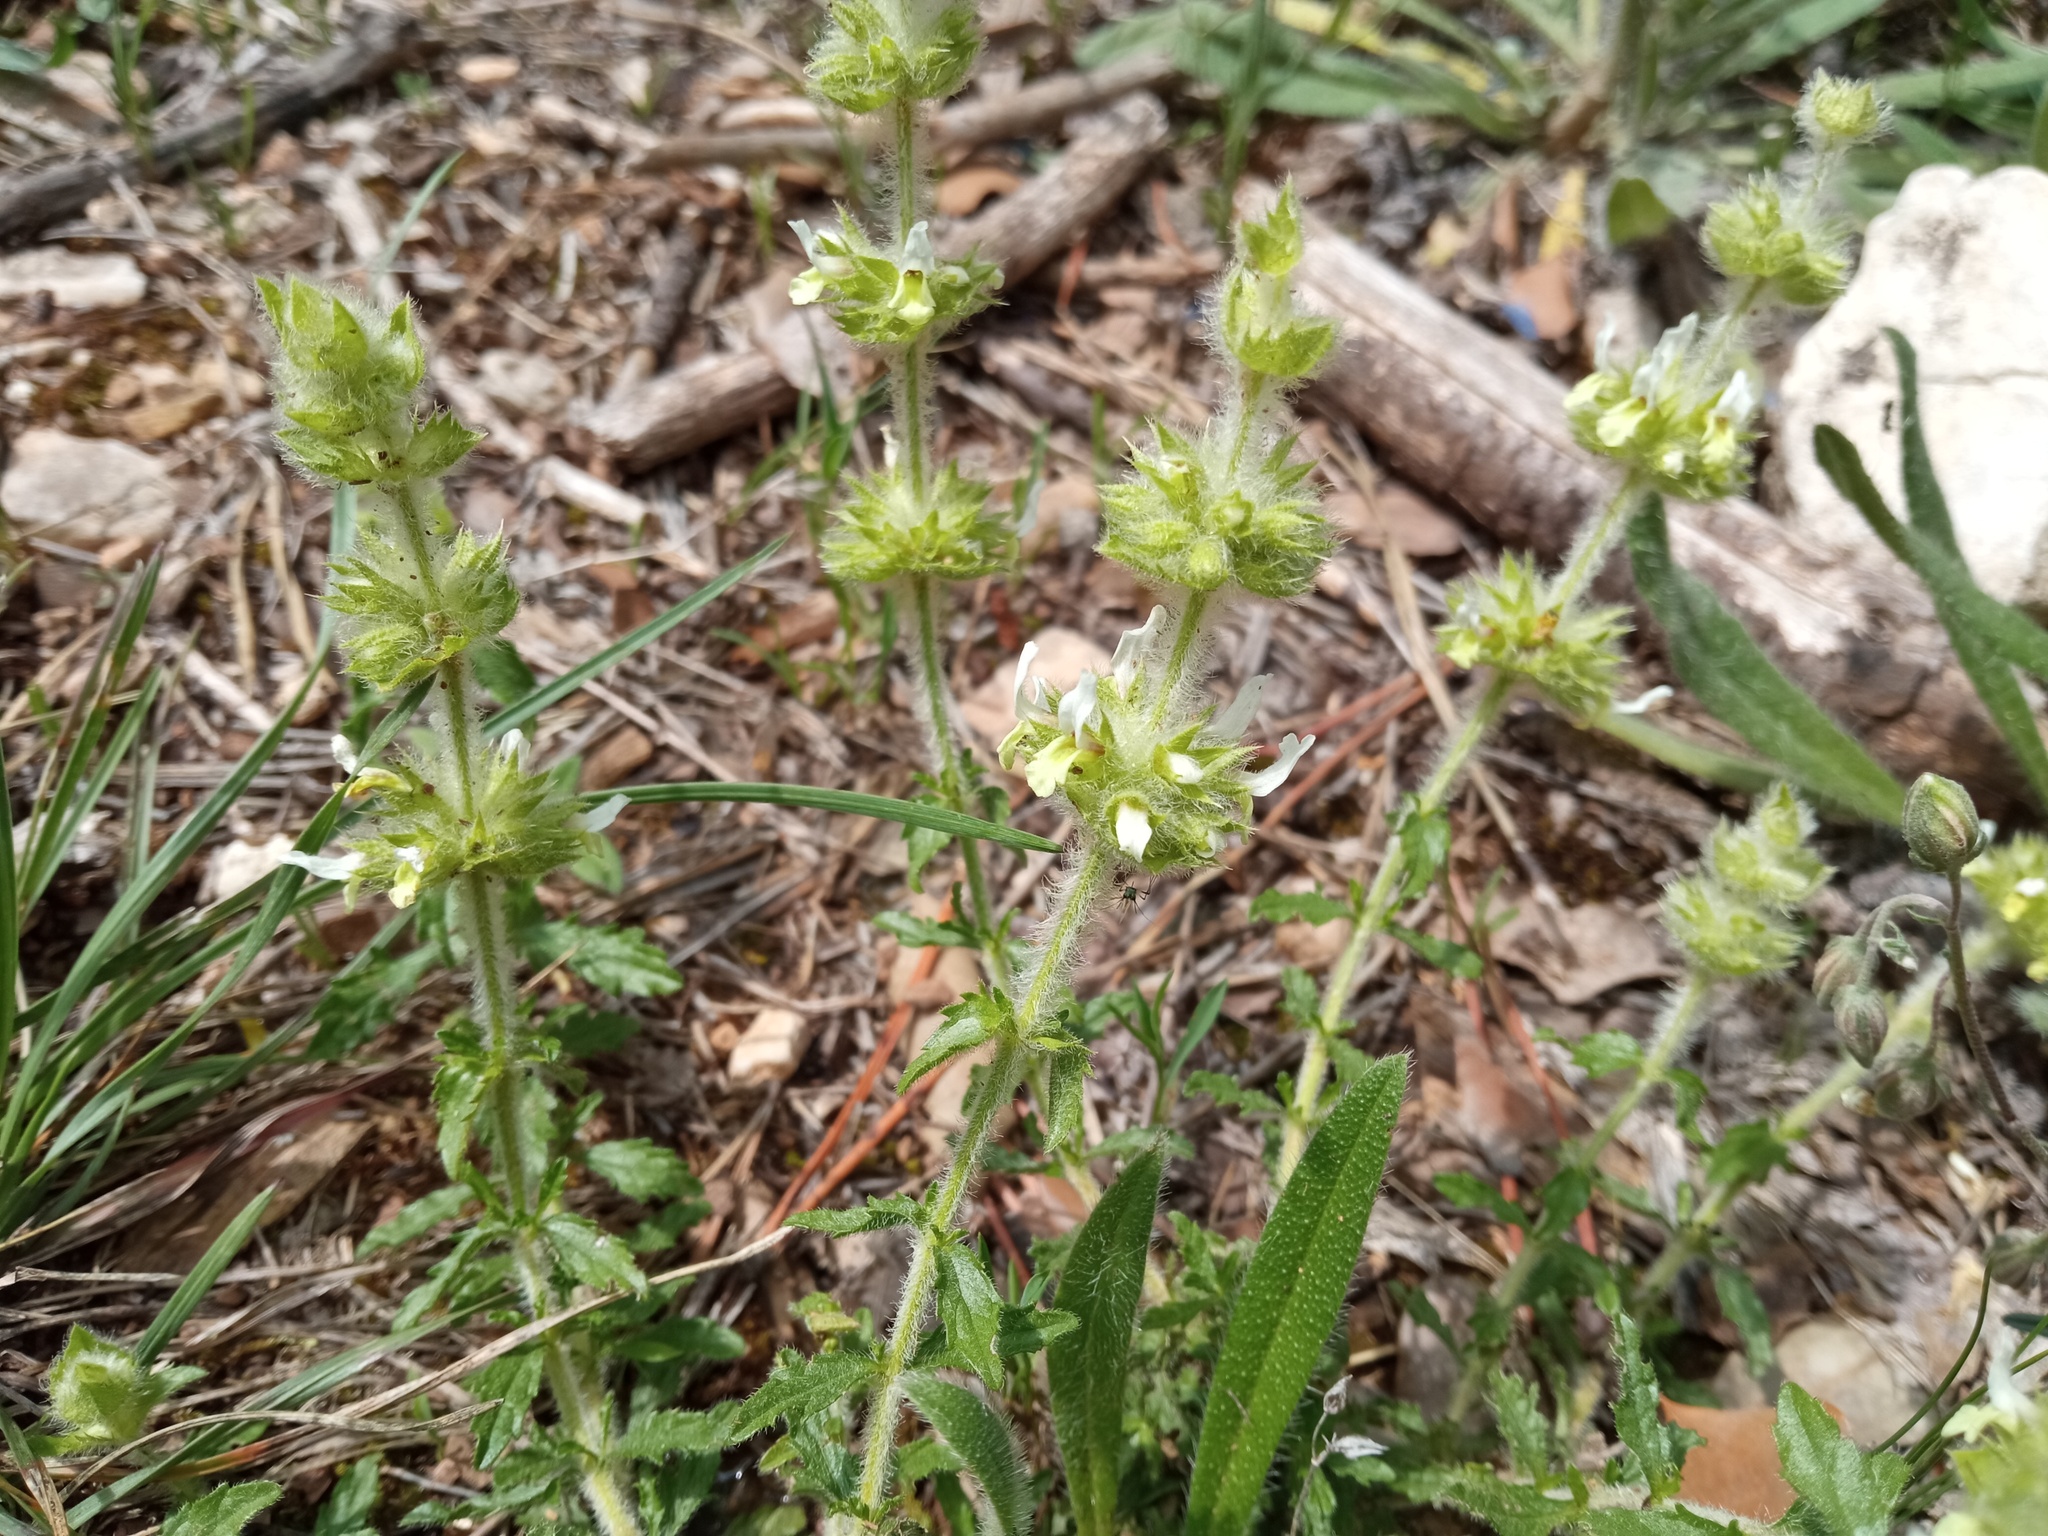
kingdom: Plantae
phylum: Tracheophyta
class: Magnoliopsida
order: Lamiales
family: Lamiaceae
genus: Sideritis
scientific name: Sideritis hirsuta
